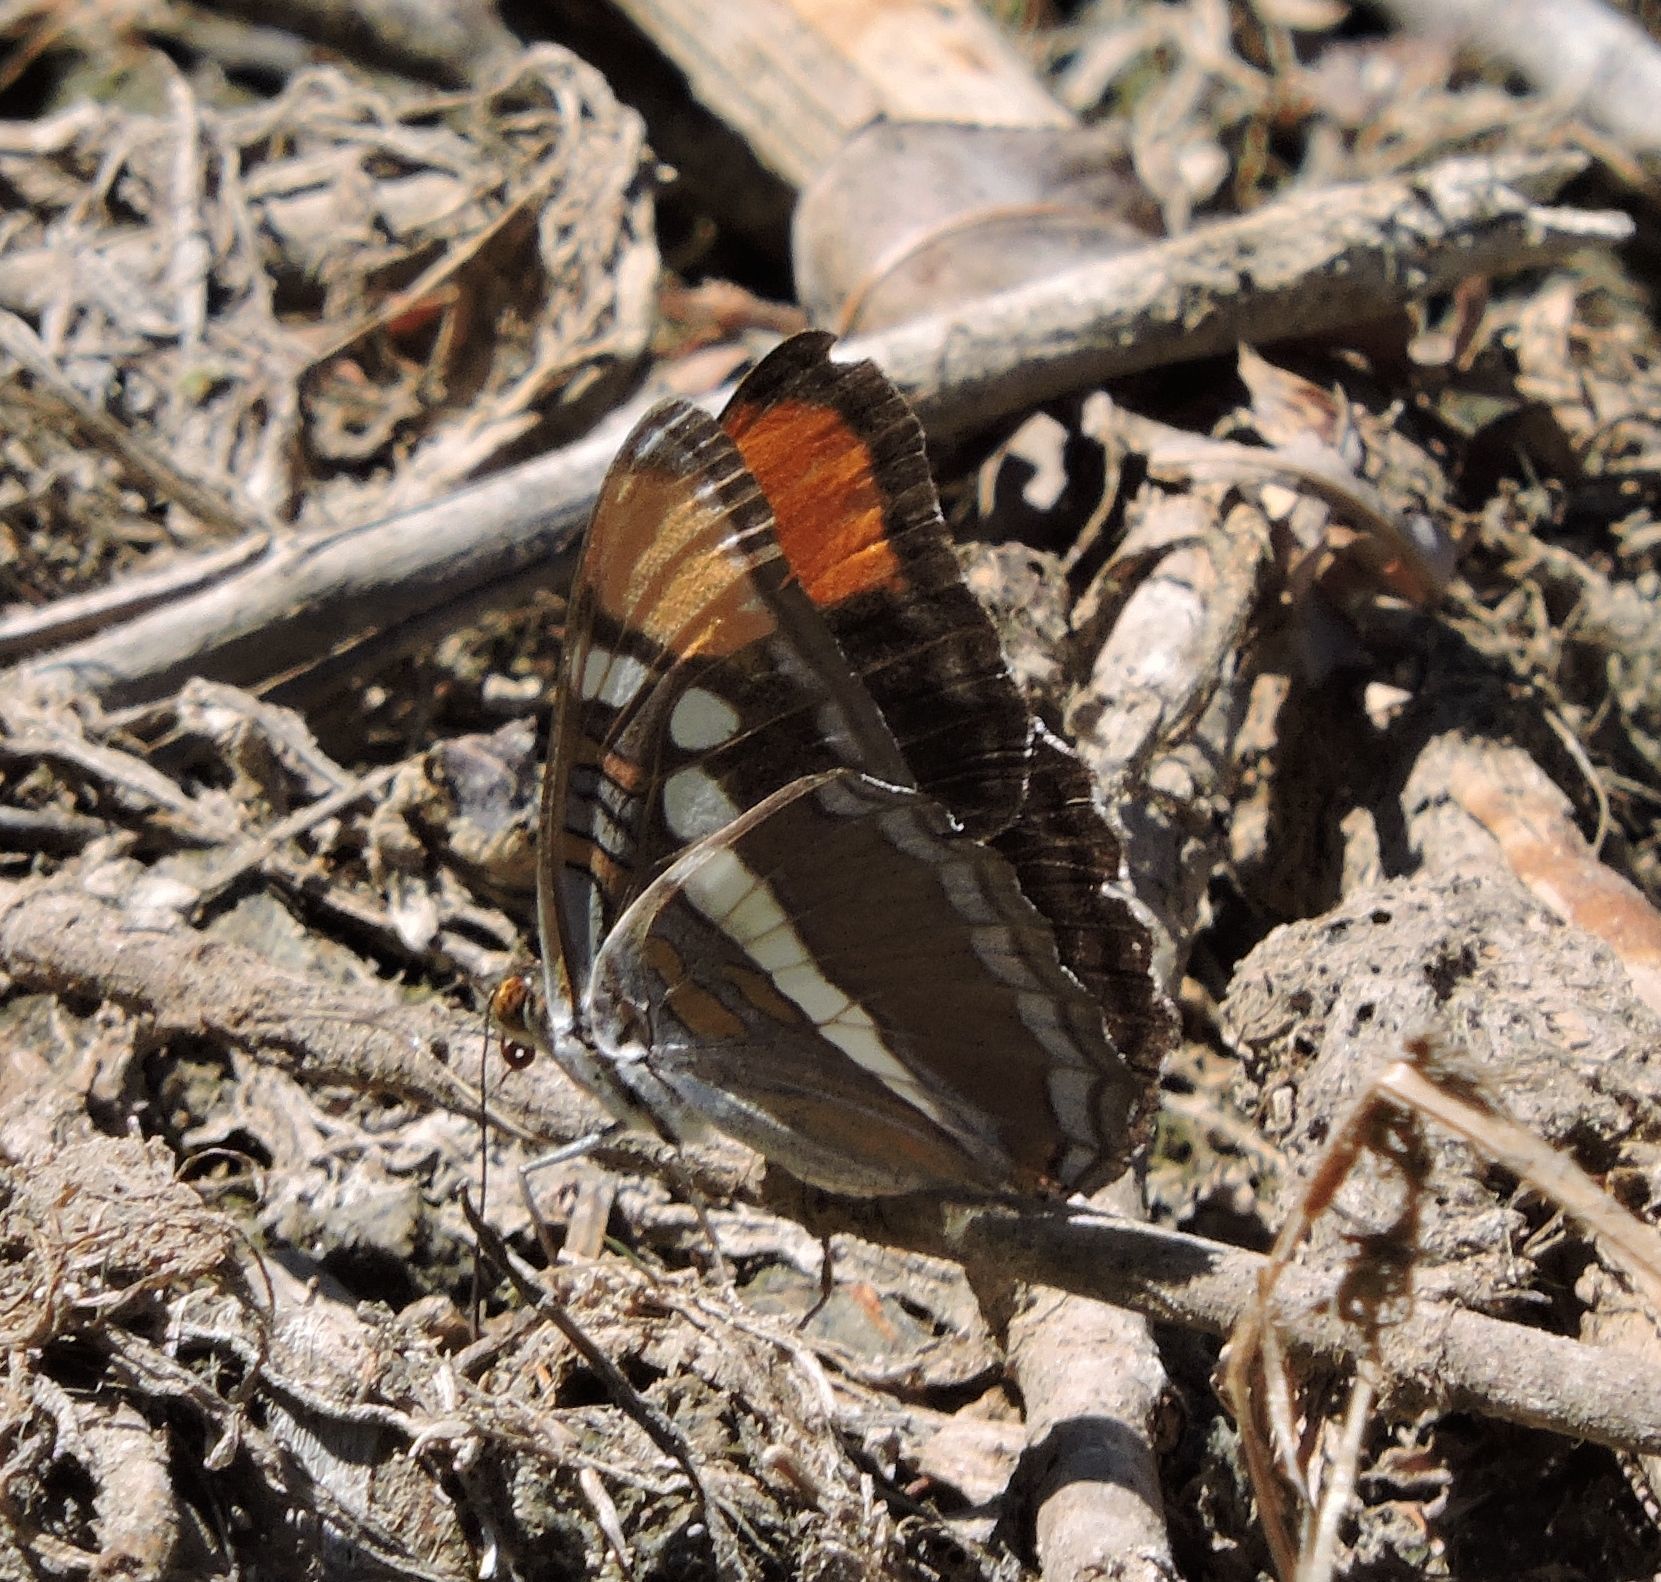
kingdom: Animalia
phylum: Arthropoda
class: Insecta
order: Lepidoptera
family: Nymphalidae
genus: Limenitis
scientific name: Limenitis bredowii
